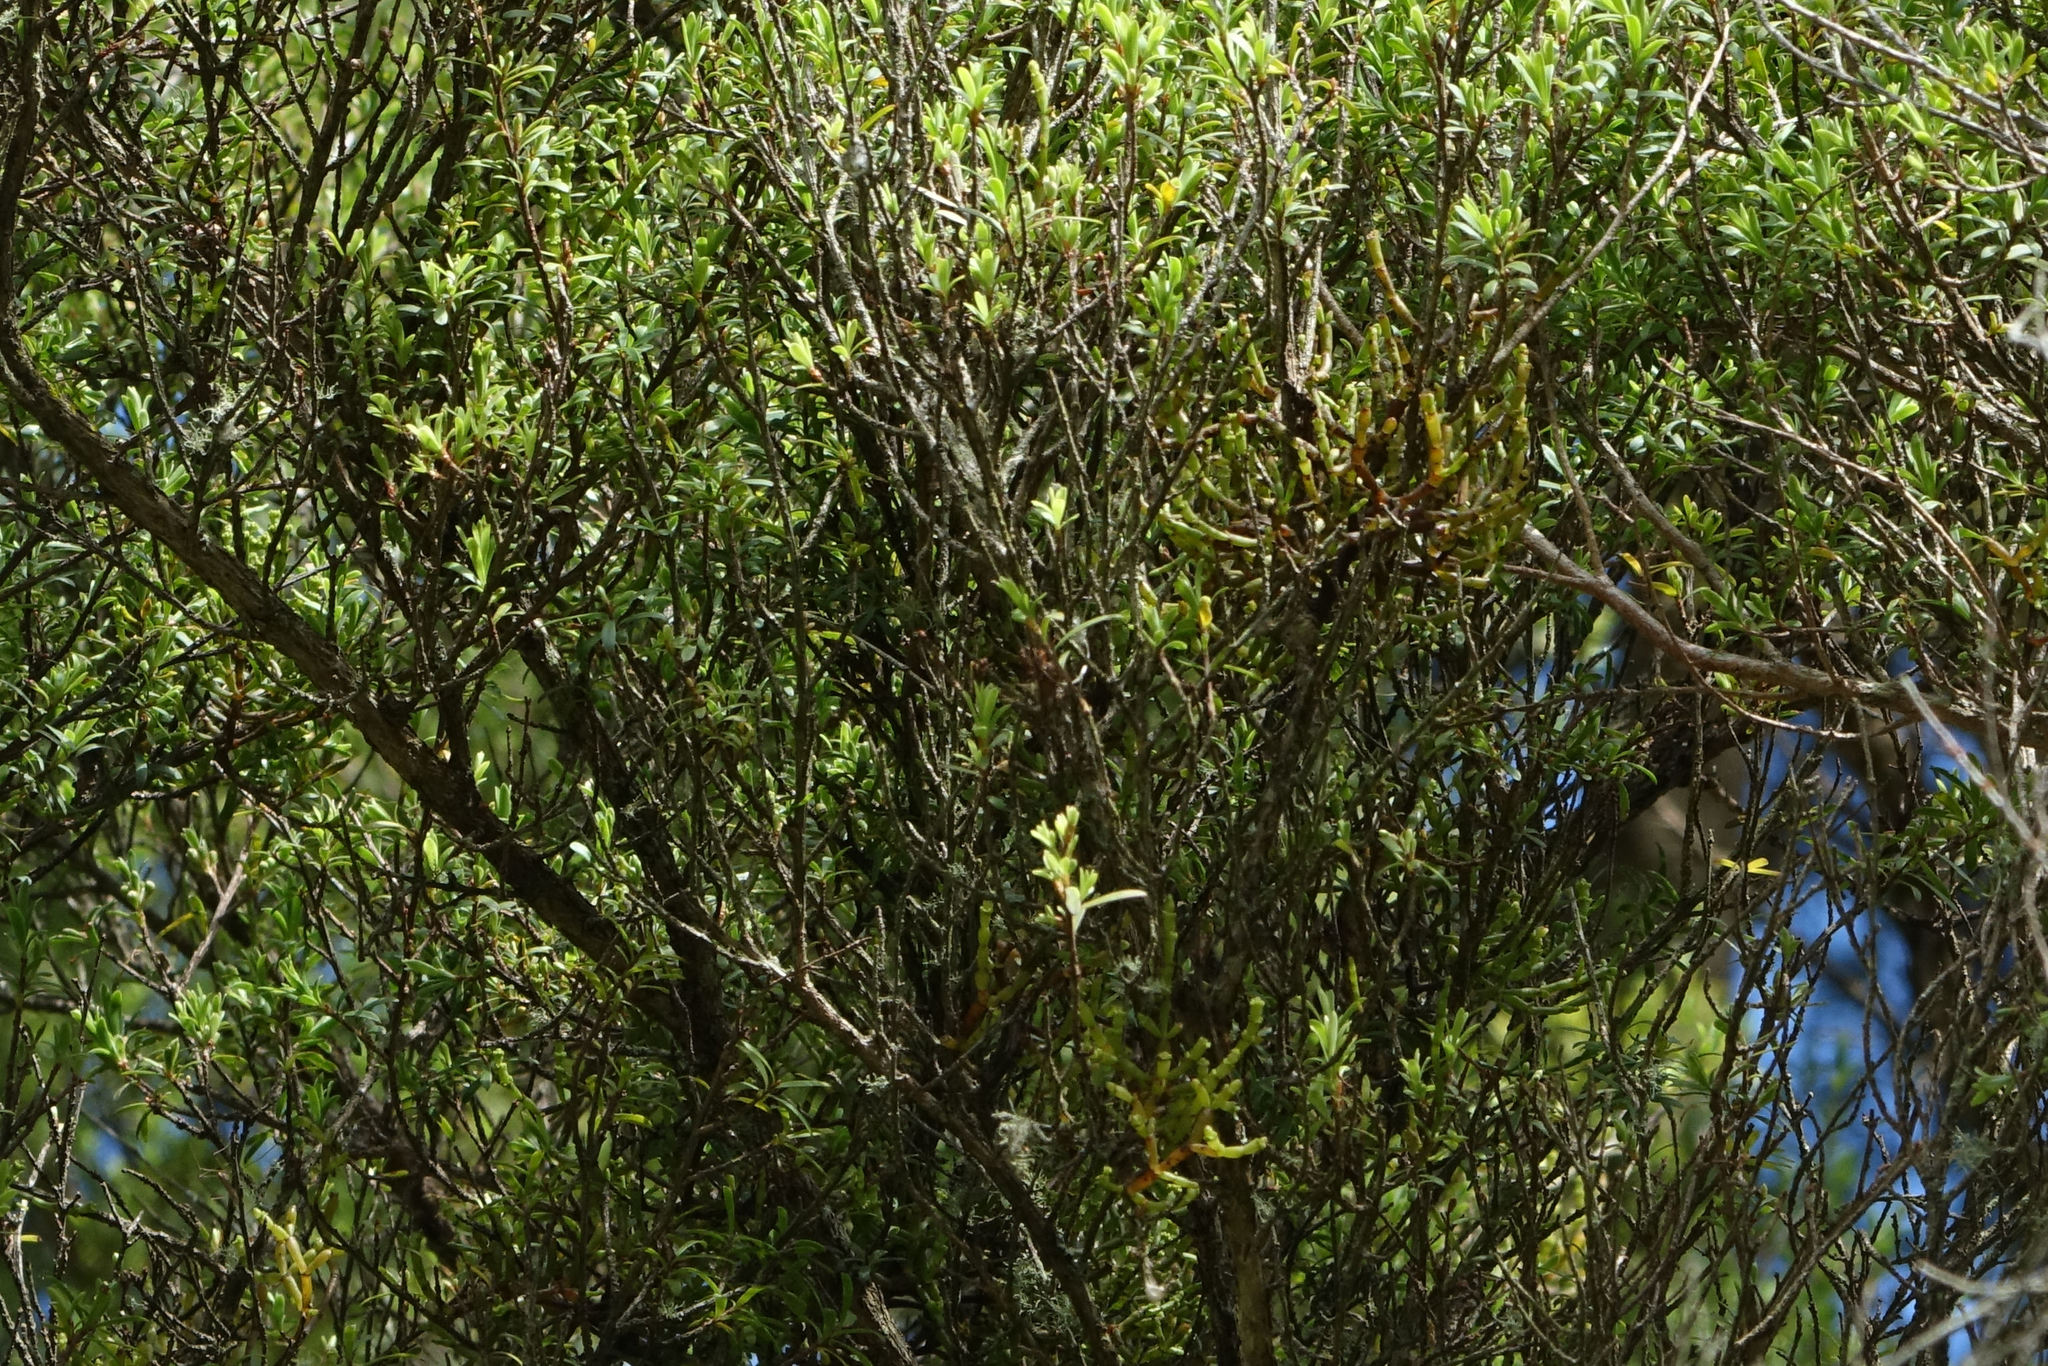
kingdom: Plantae
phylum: Tracheophyta
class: Magnoliopsida
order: Santalales
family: Viscaceae
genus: Korthalsella
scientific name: Korthalsella salicornioides
